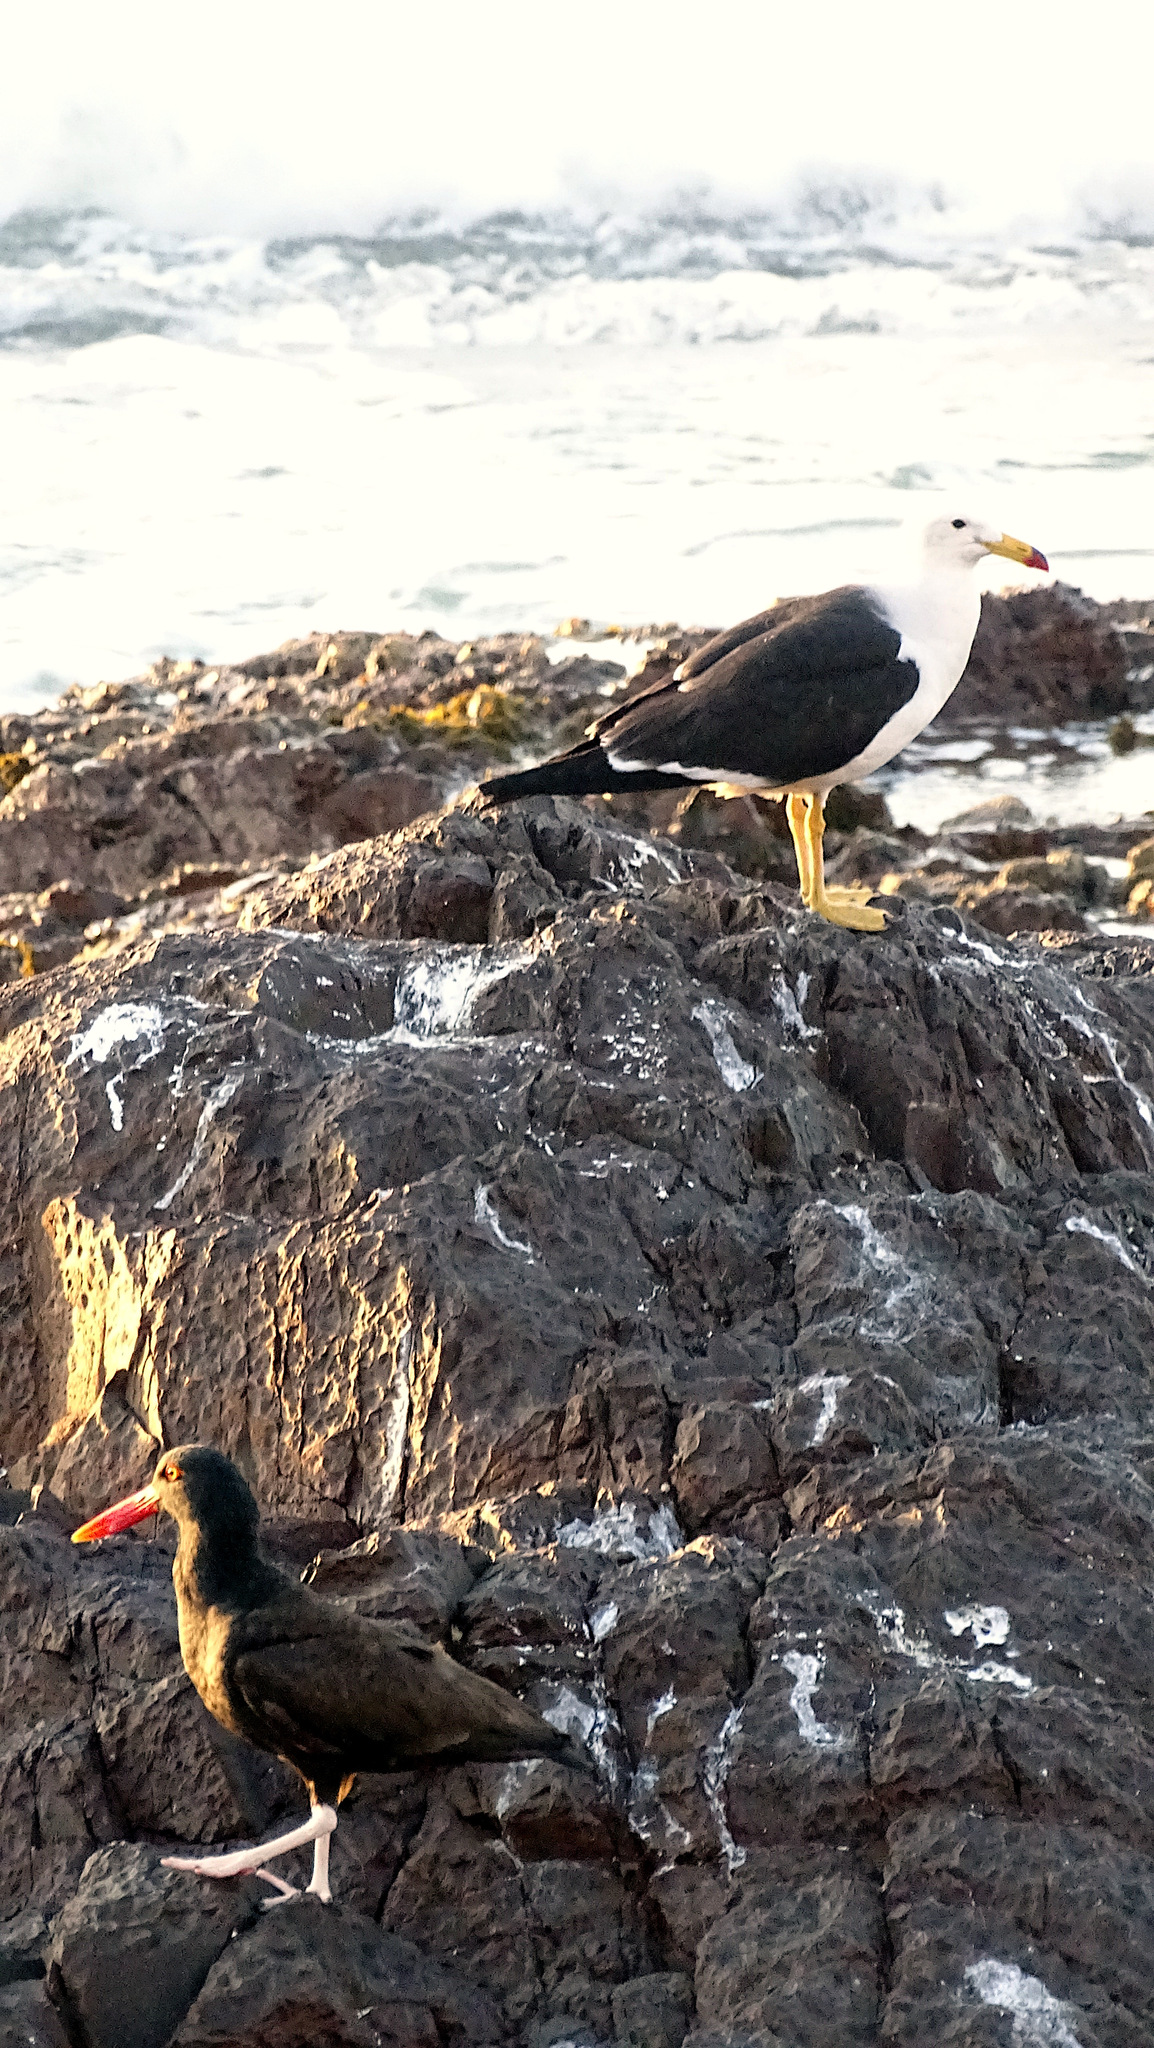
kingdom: Animalia
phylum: Chordata
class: Aves
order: Charadriiformes
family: Haematopodidae
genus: Haematopus
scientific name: Haematopus ater
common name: Blackish oystercatcher
